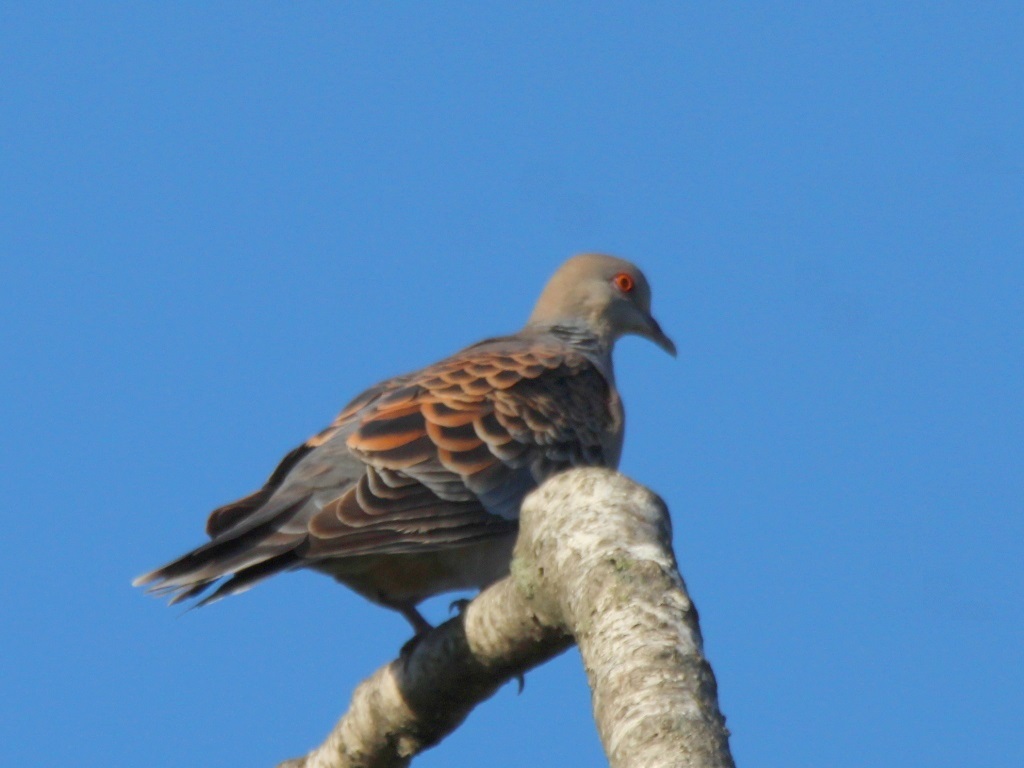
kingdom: Animalia
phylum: Chordata
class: Aves
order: Columbiformes
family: Columbidae
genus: Streptopelia
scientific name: Streptopelia orientalis
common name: Oriental turtle dove
